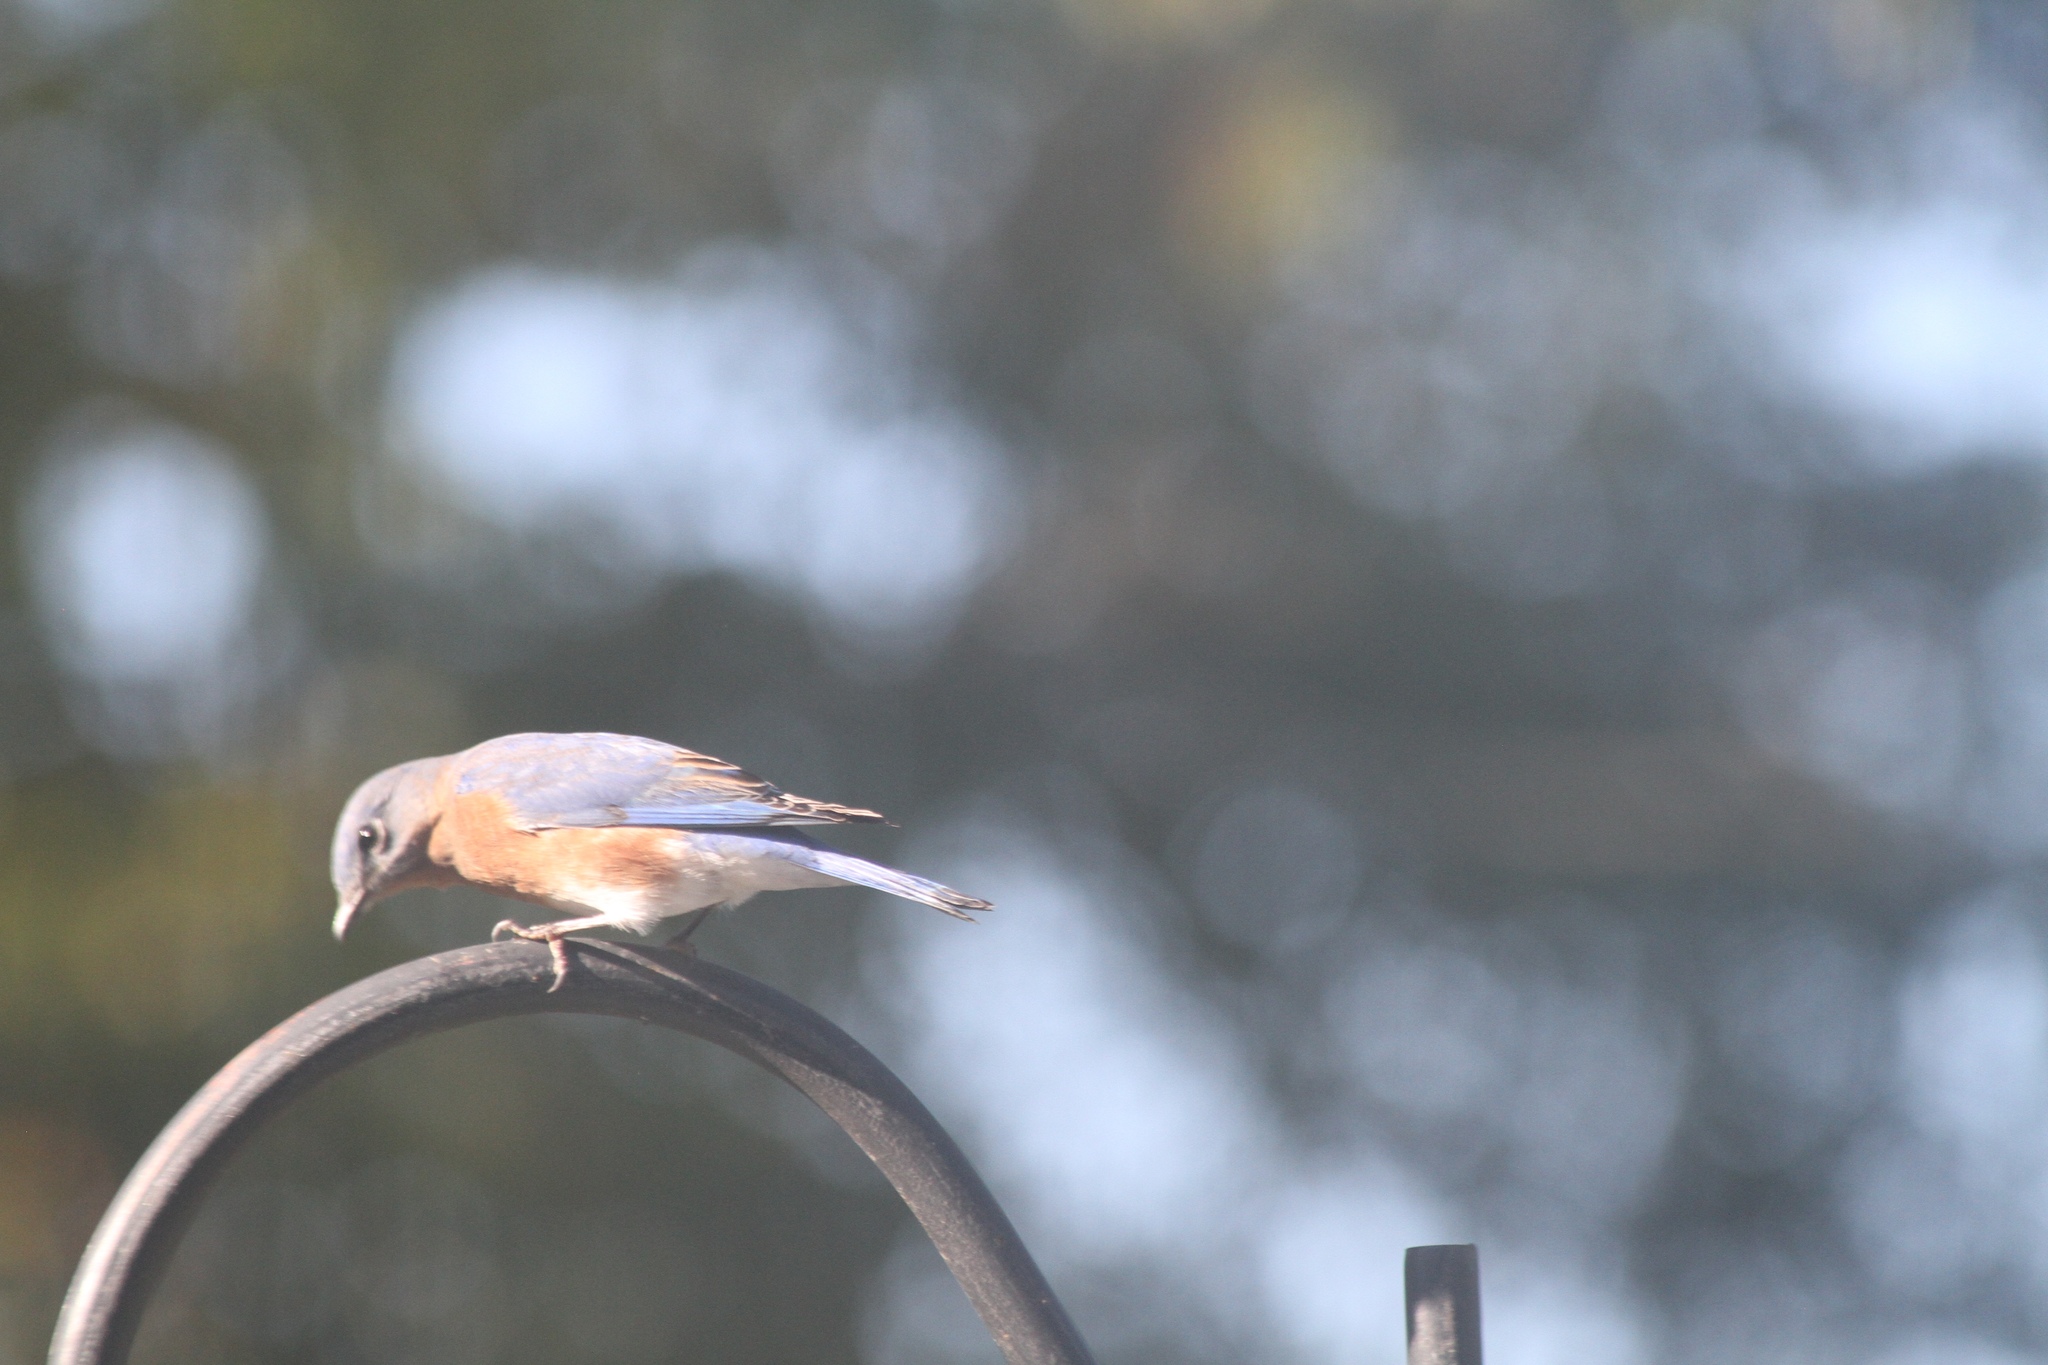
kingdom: Animalia
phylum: Chordata
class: Aves
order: Passeriformes
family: Turdidae
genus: Sialia
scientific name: Sialia sialis
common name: Eastern bluebird
